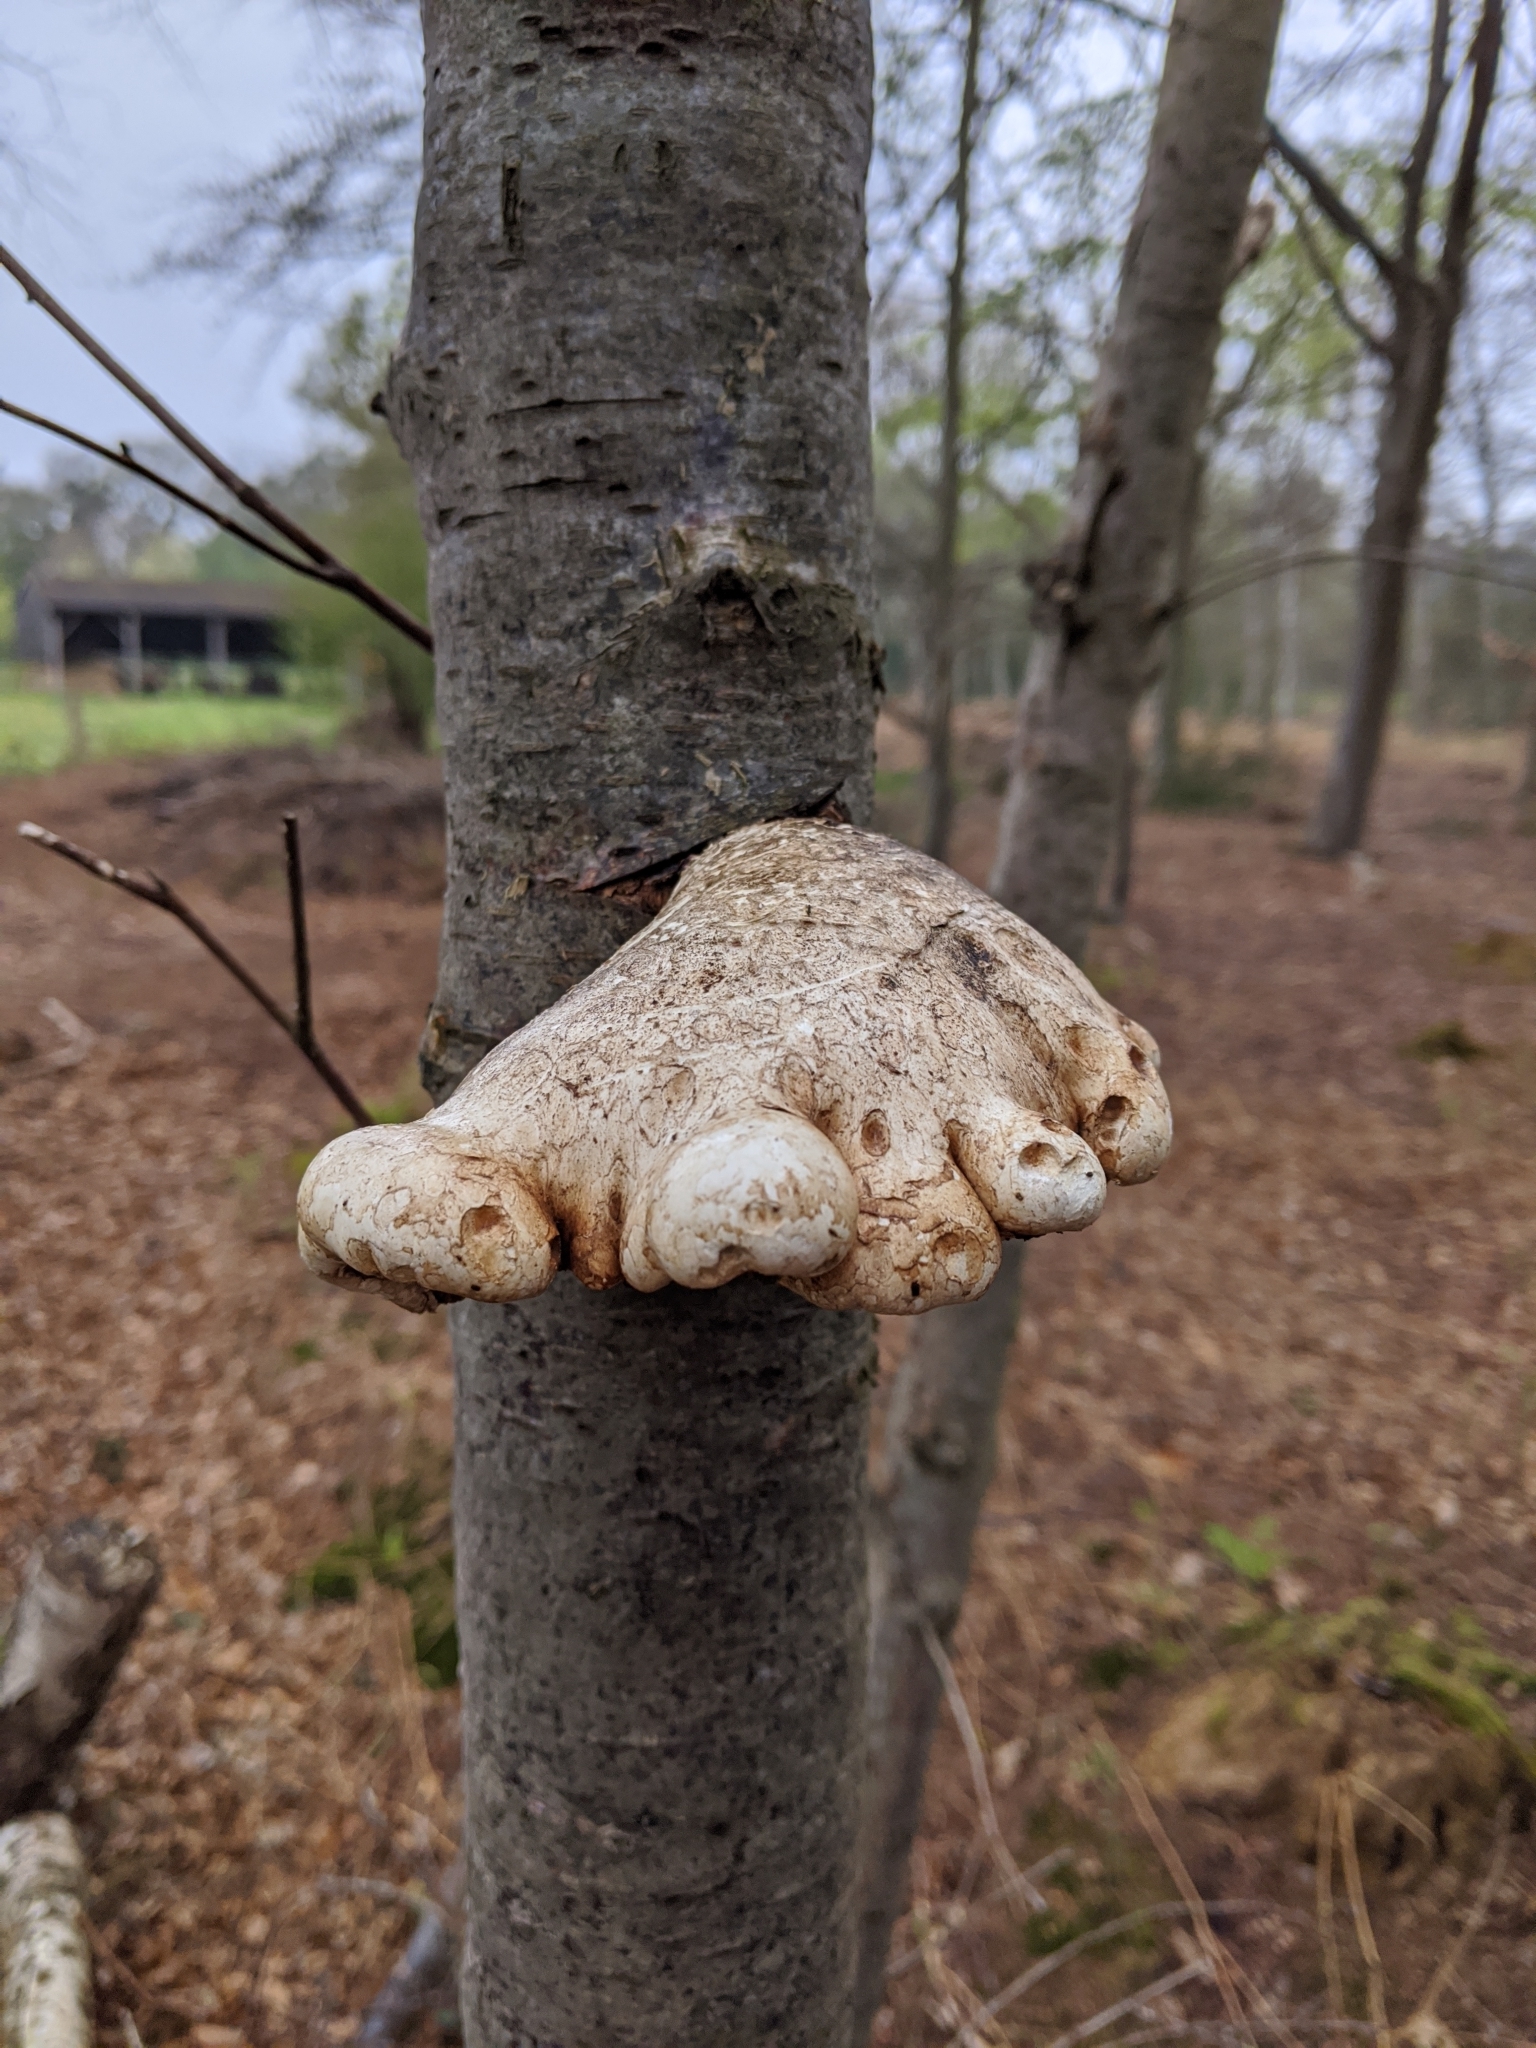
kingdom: Fungi
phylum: Basidiomycota
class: Agaricomycetes
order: Polyporales
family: Fomitopsidaceae
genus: Fomitopsis
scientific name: Fomitopsis betulina
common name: Birch polypore
